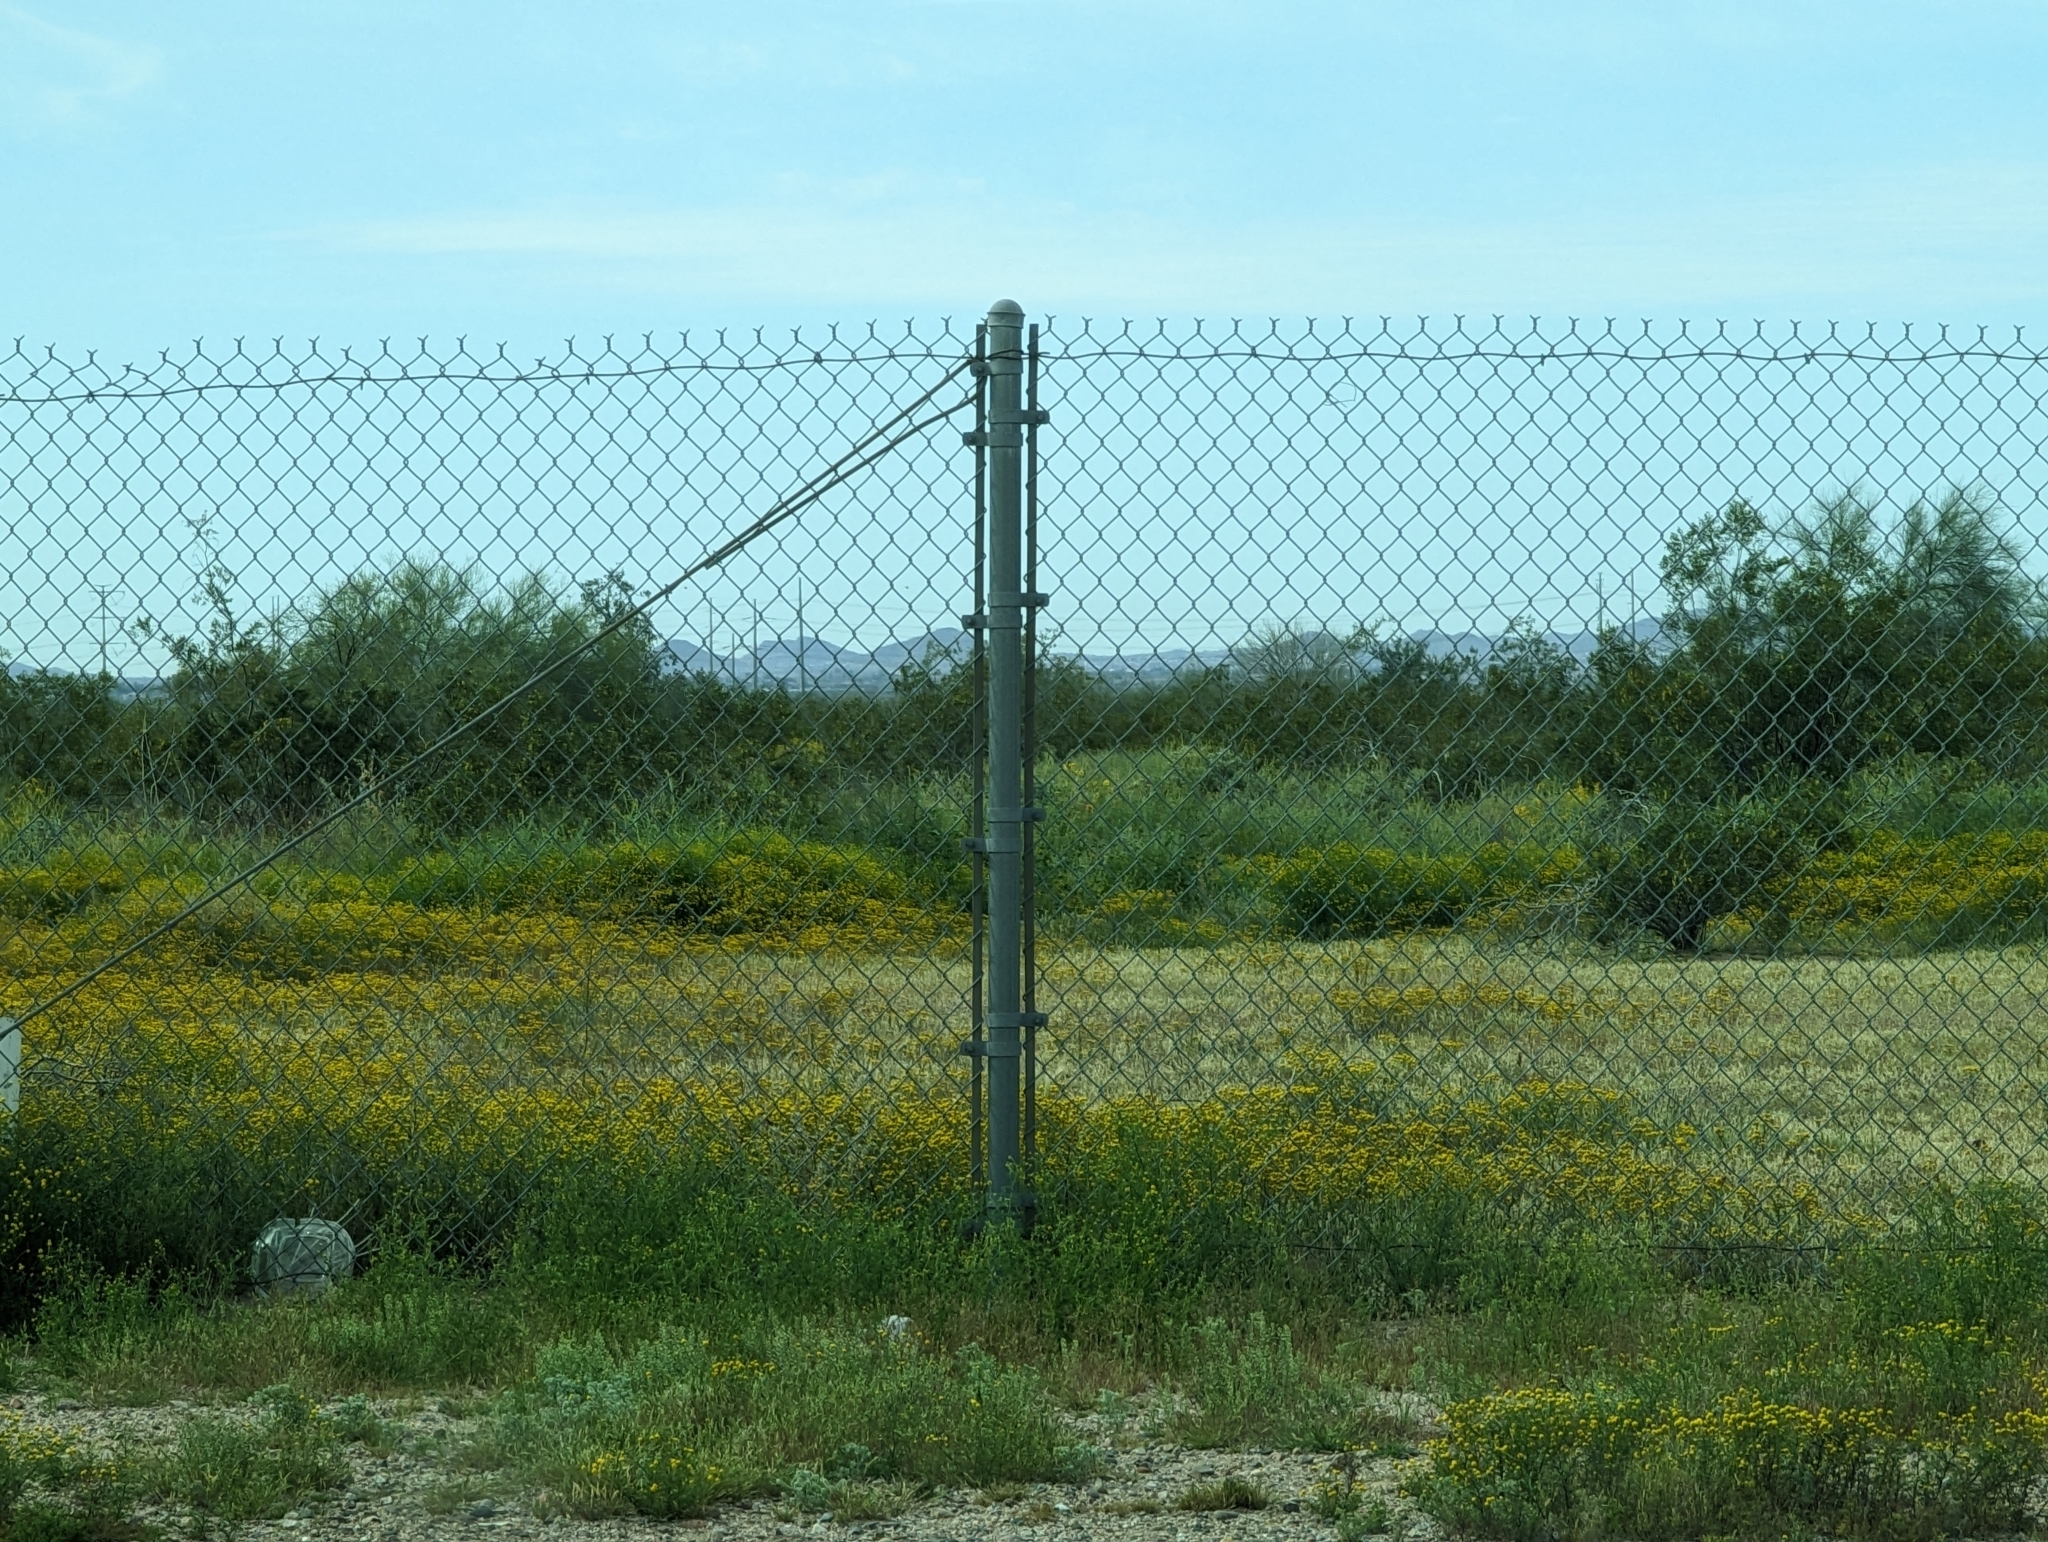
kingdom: Plantae
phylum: Tracheophyta
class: Magnoliopsida
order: Asterales
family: Asteraceae
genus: Oncosiphon
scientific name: Oncosiphon pilulifer
